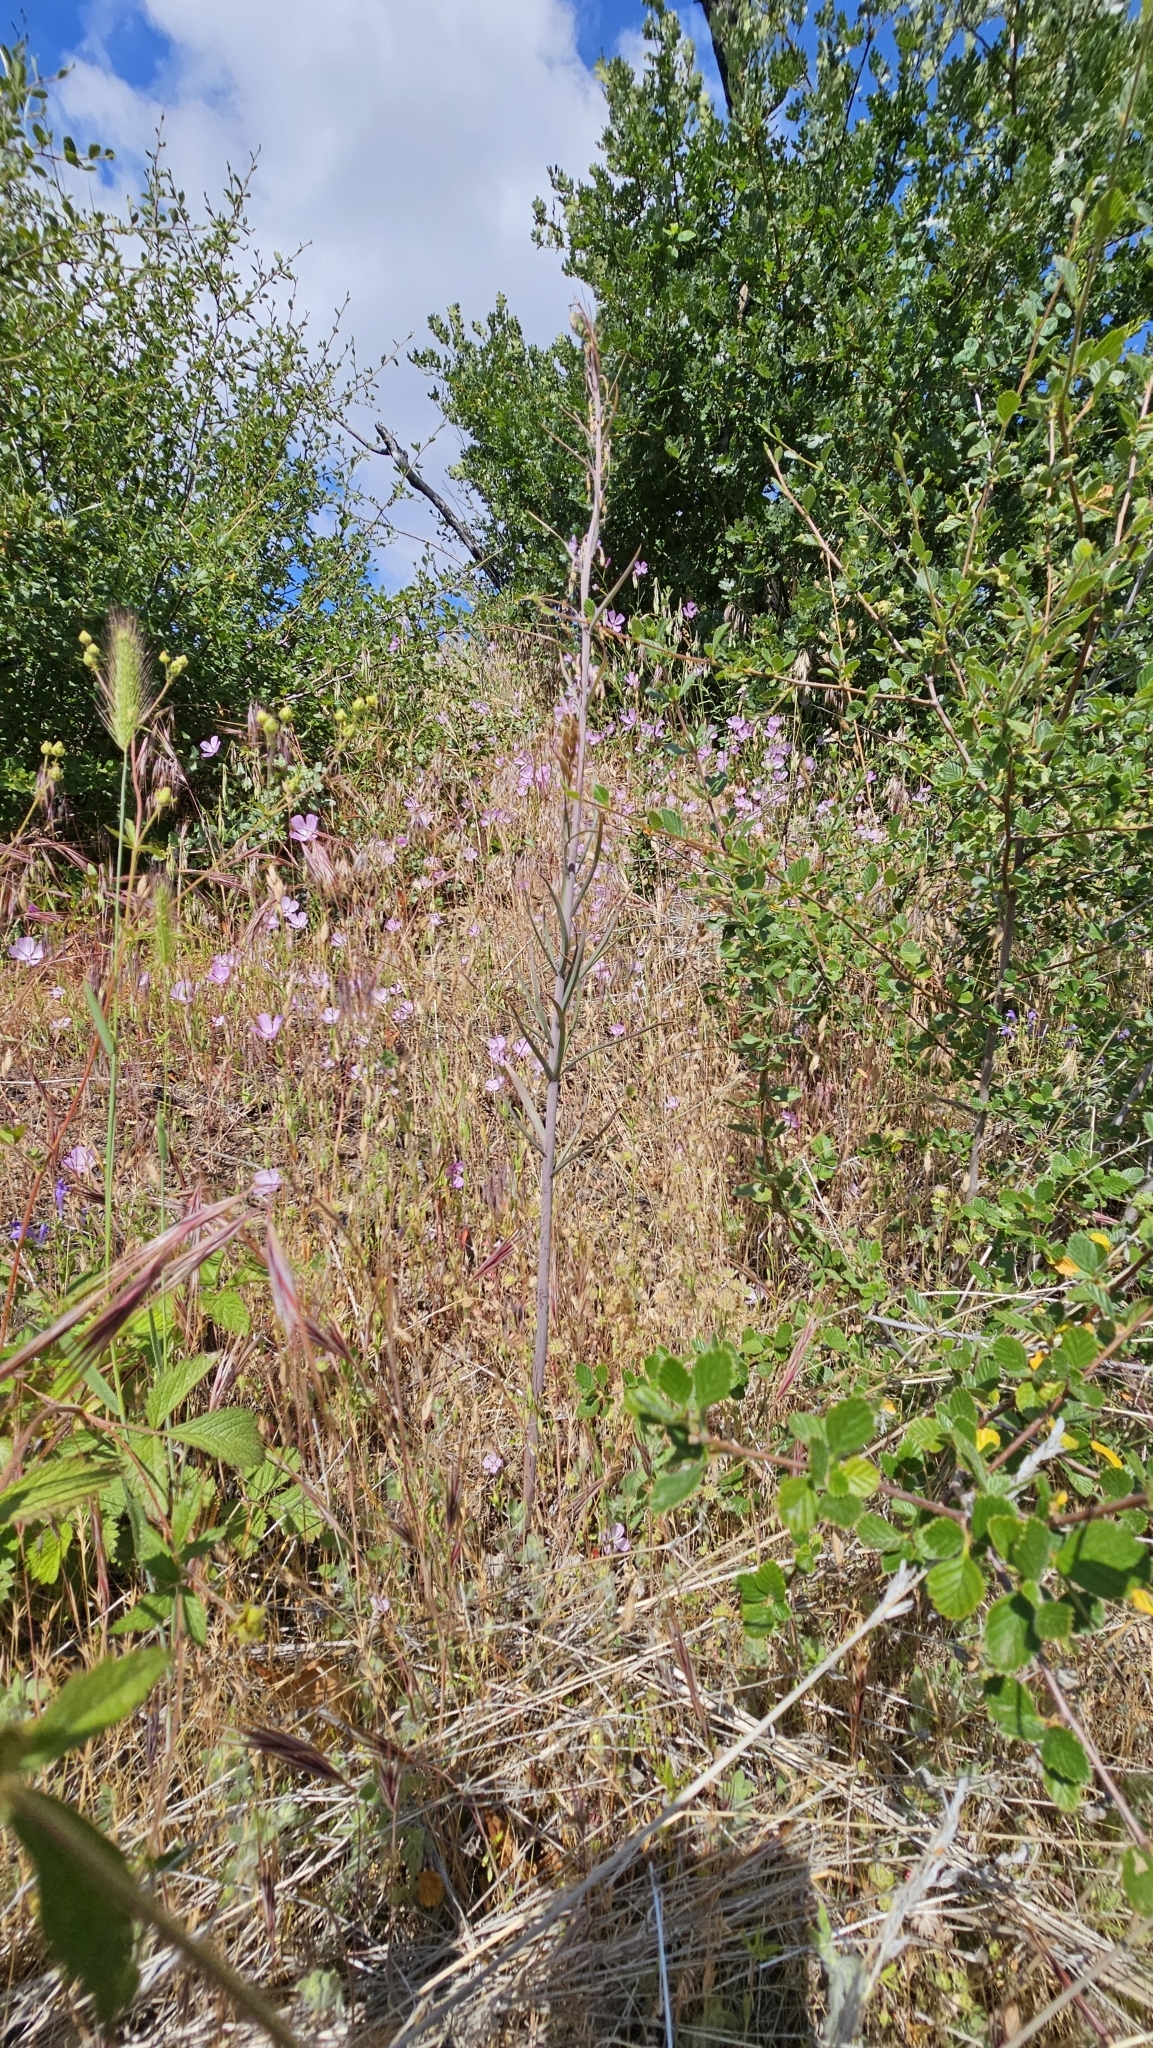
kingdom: Plantae
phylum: Tracheophyta
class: Liliopsida
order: Liliales
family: Liliaceae
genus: Fritillaria
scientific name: Fritillaria micrantha
